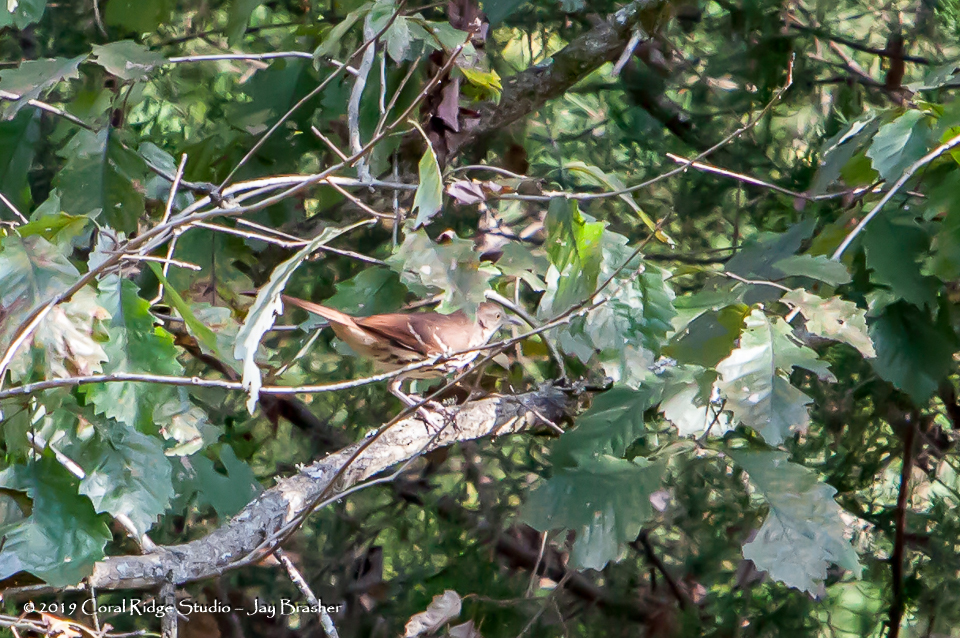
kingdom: Animalia
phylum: Chordata
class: Aves
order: Passeriformes
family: Mimidae
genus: Toxostoma
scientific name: Toxostoma rufum
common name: Brown thrasher
